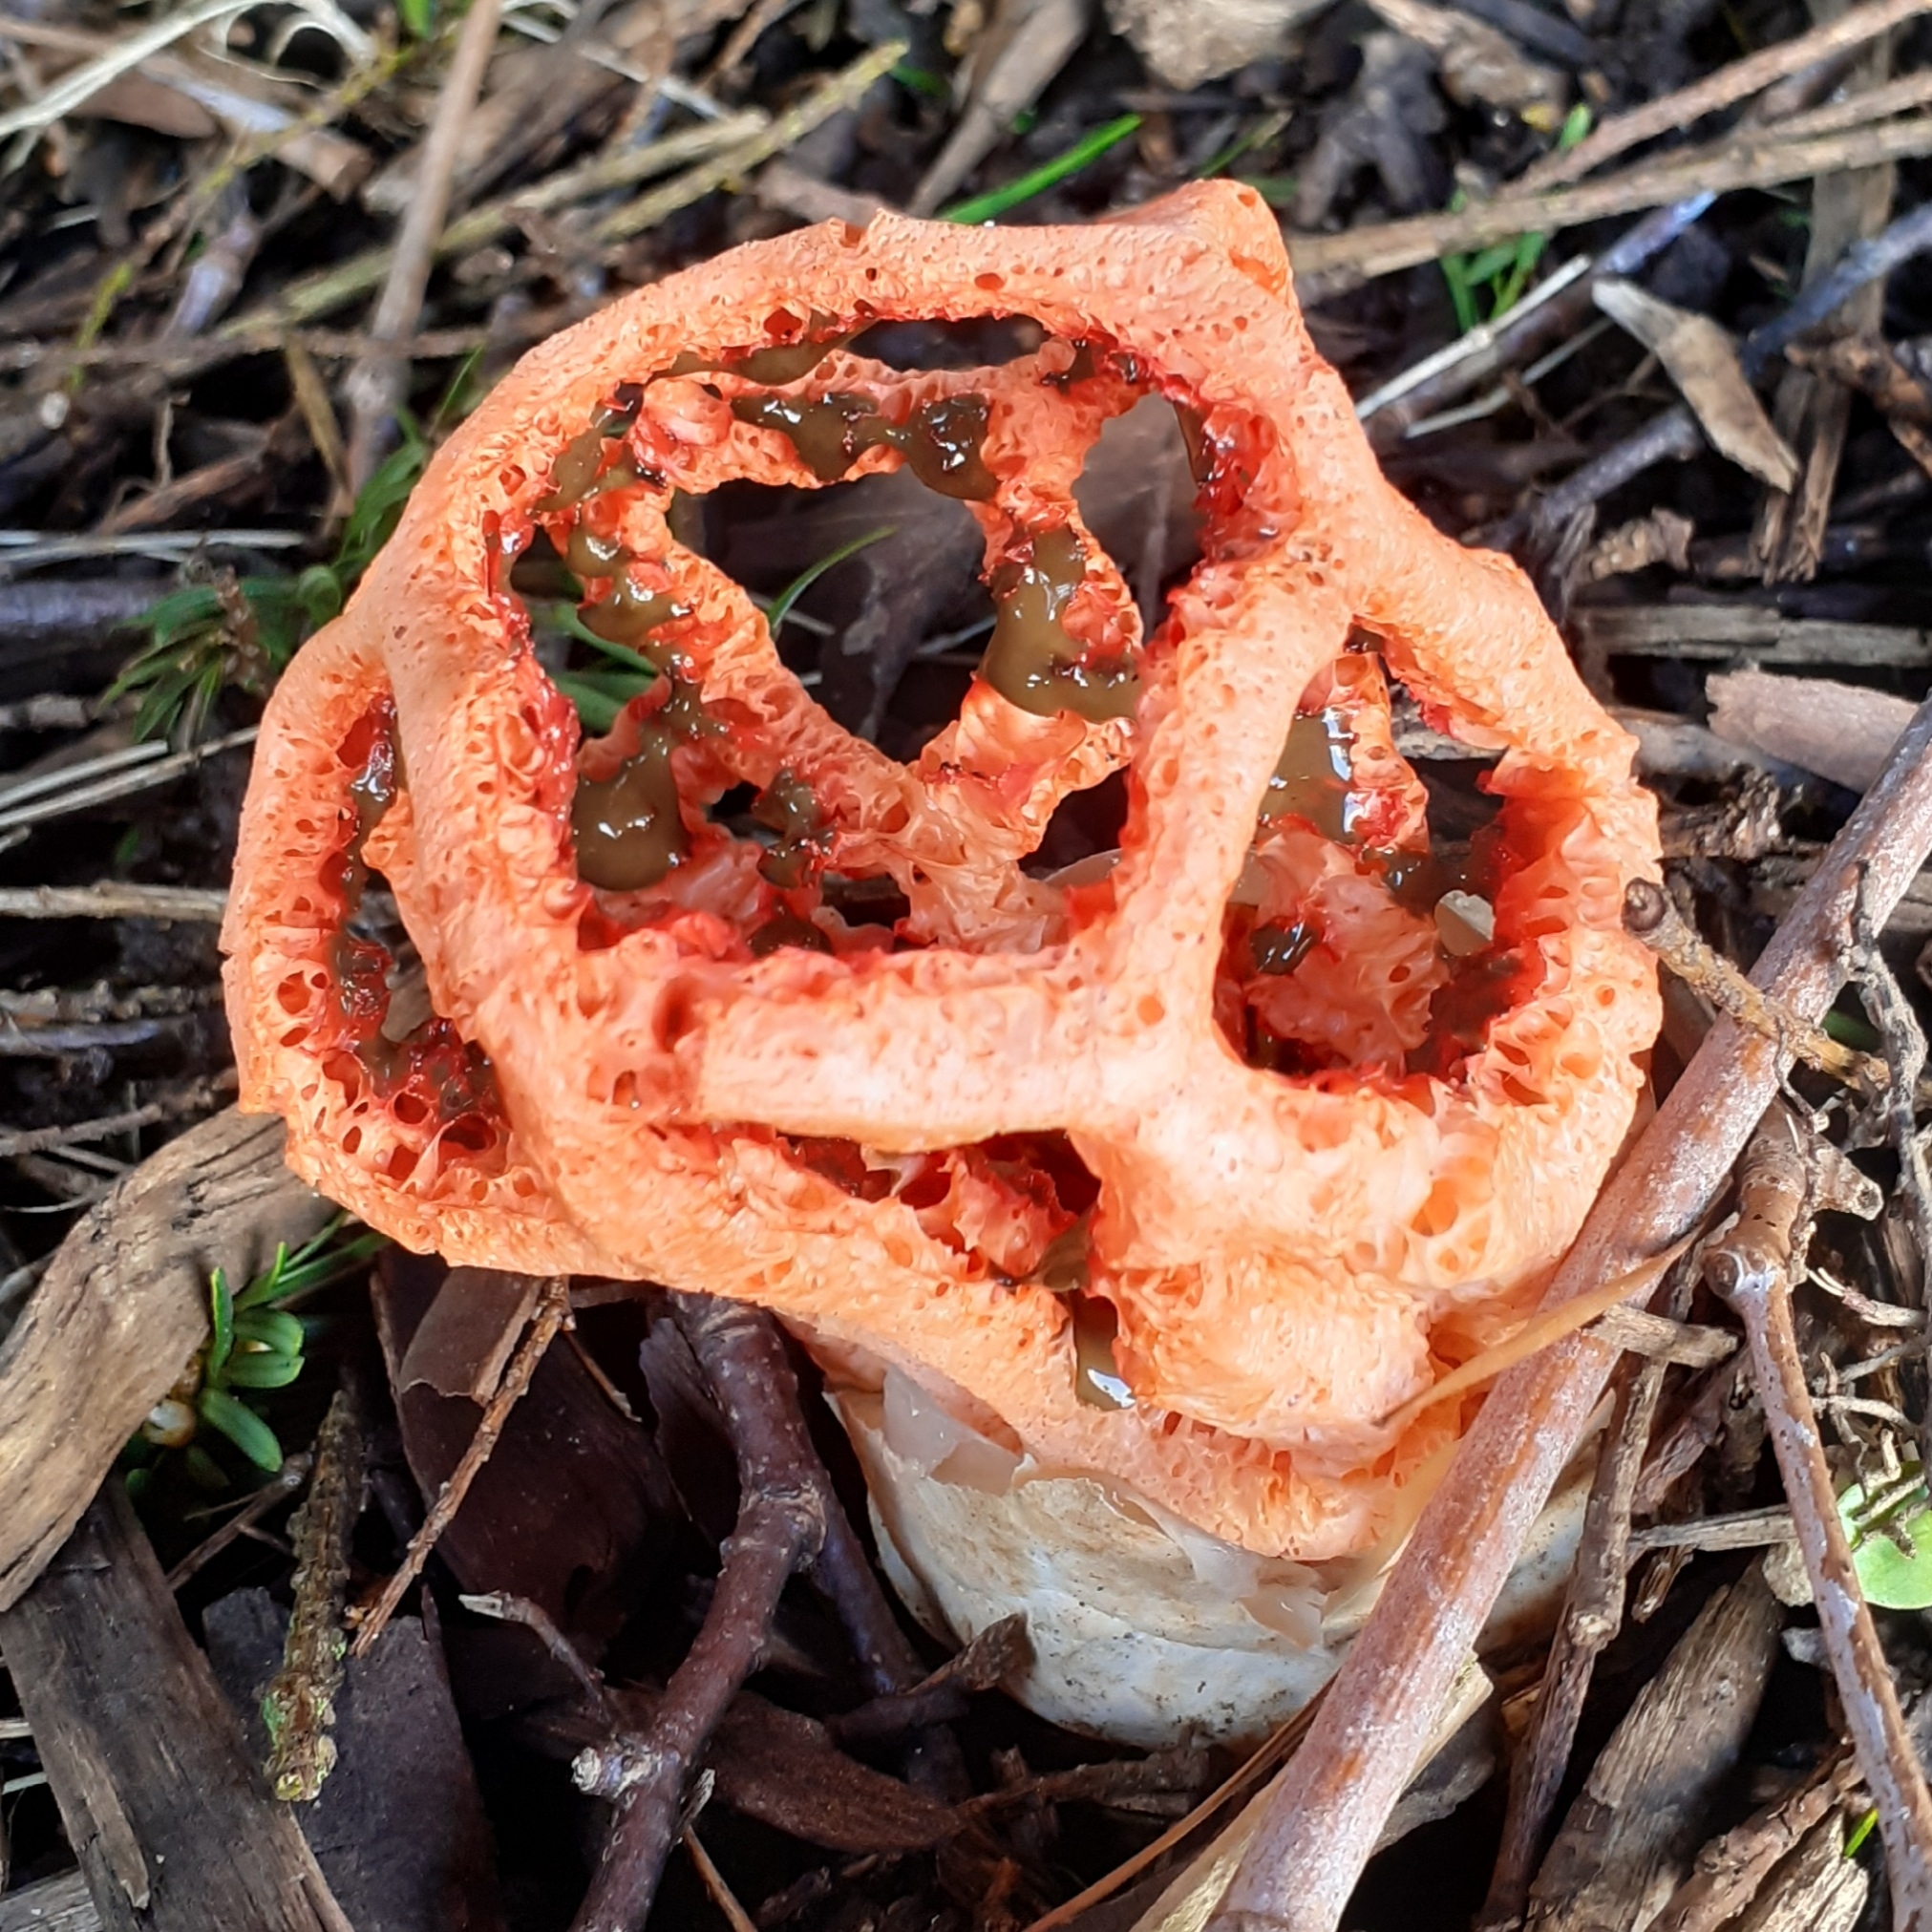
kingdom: Fungi
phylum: Basidiomycota
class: Agaricomycetes
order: Phallales
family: Phallaceae
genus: Clathrus
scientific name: Clathrus ruber
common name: Red cage
